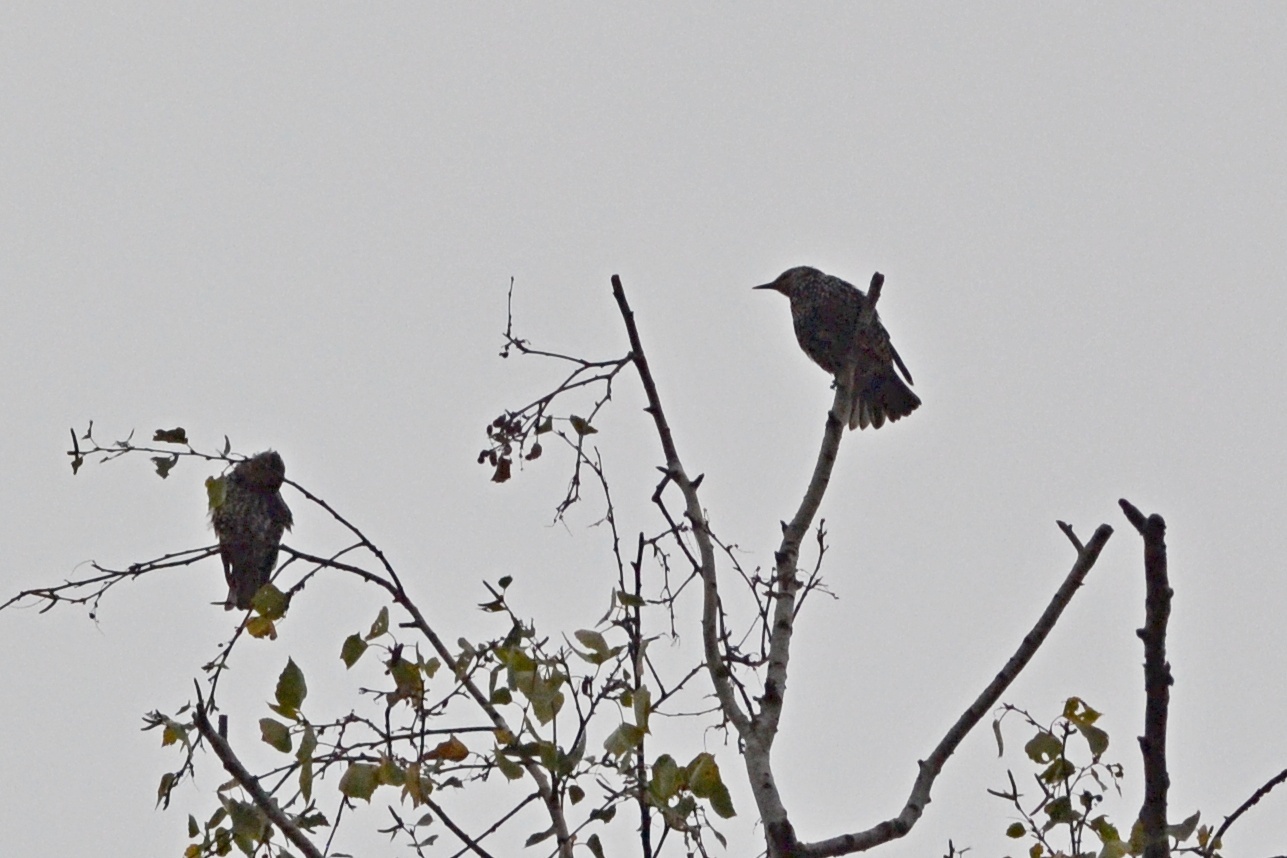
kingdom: Animalia
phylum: Chordata
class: Aves
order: Passeriformes
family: Sturnidae
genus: Sturnus
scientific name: Sturnus vulgaris
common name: Common starling
